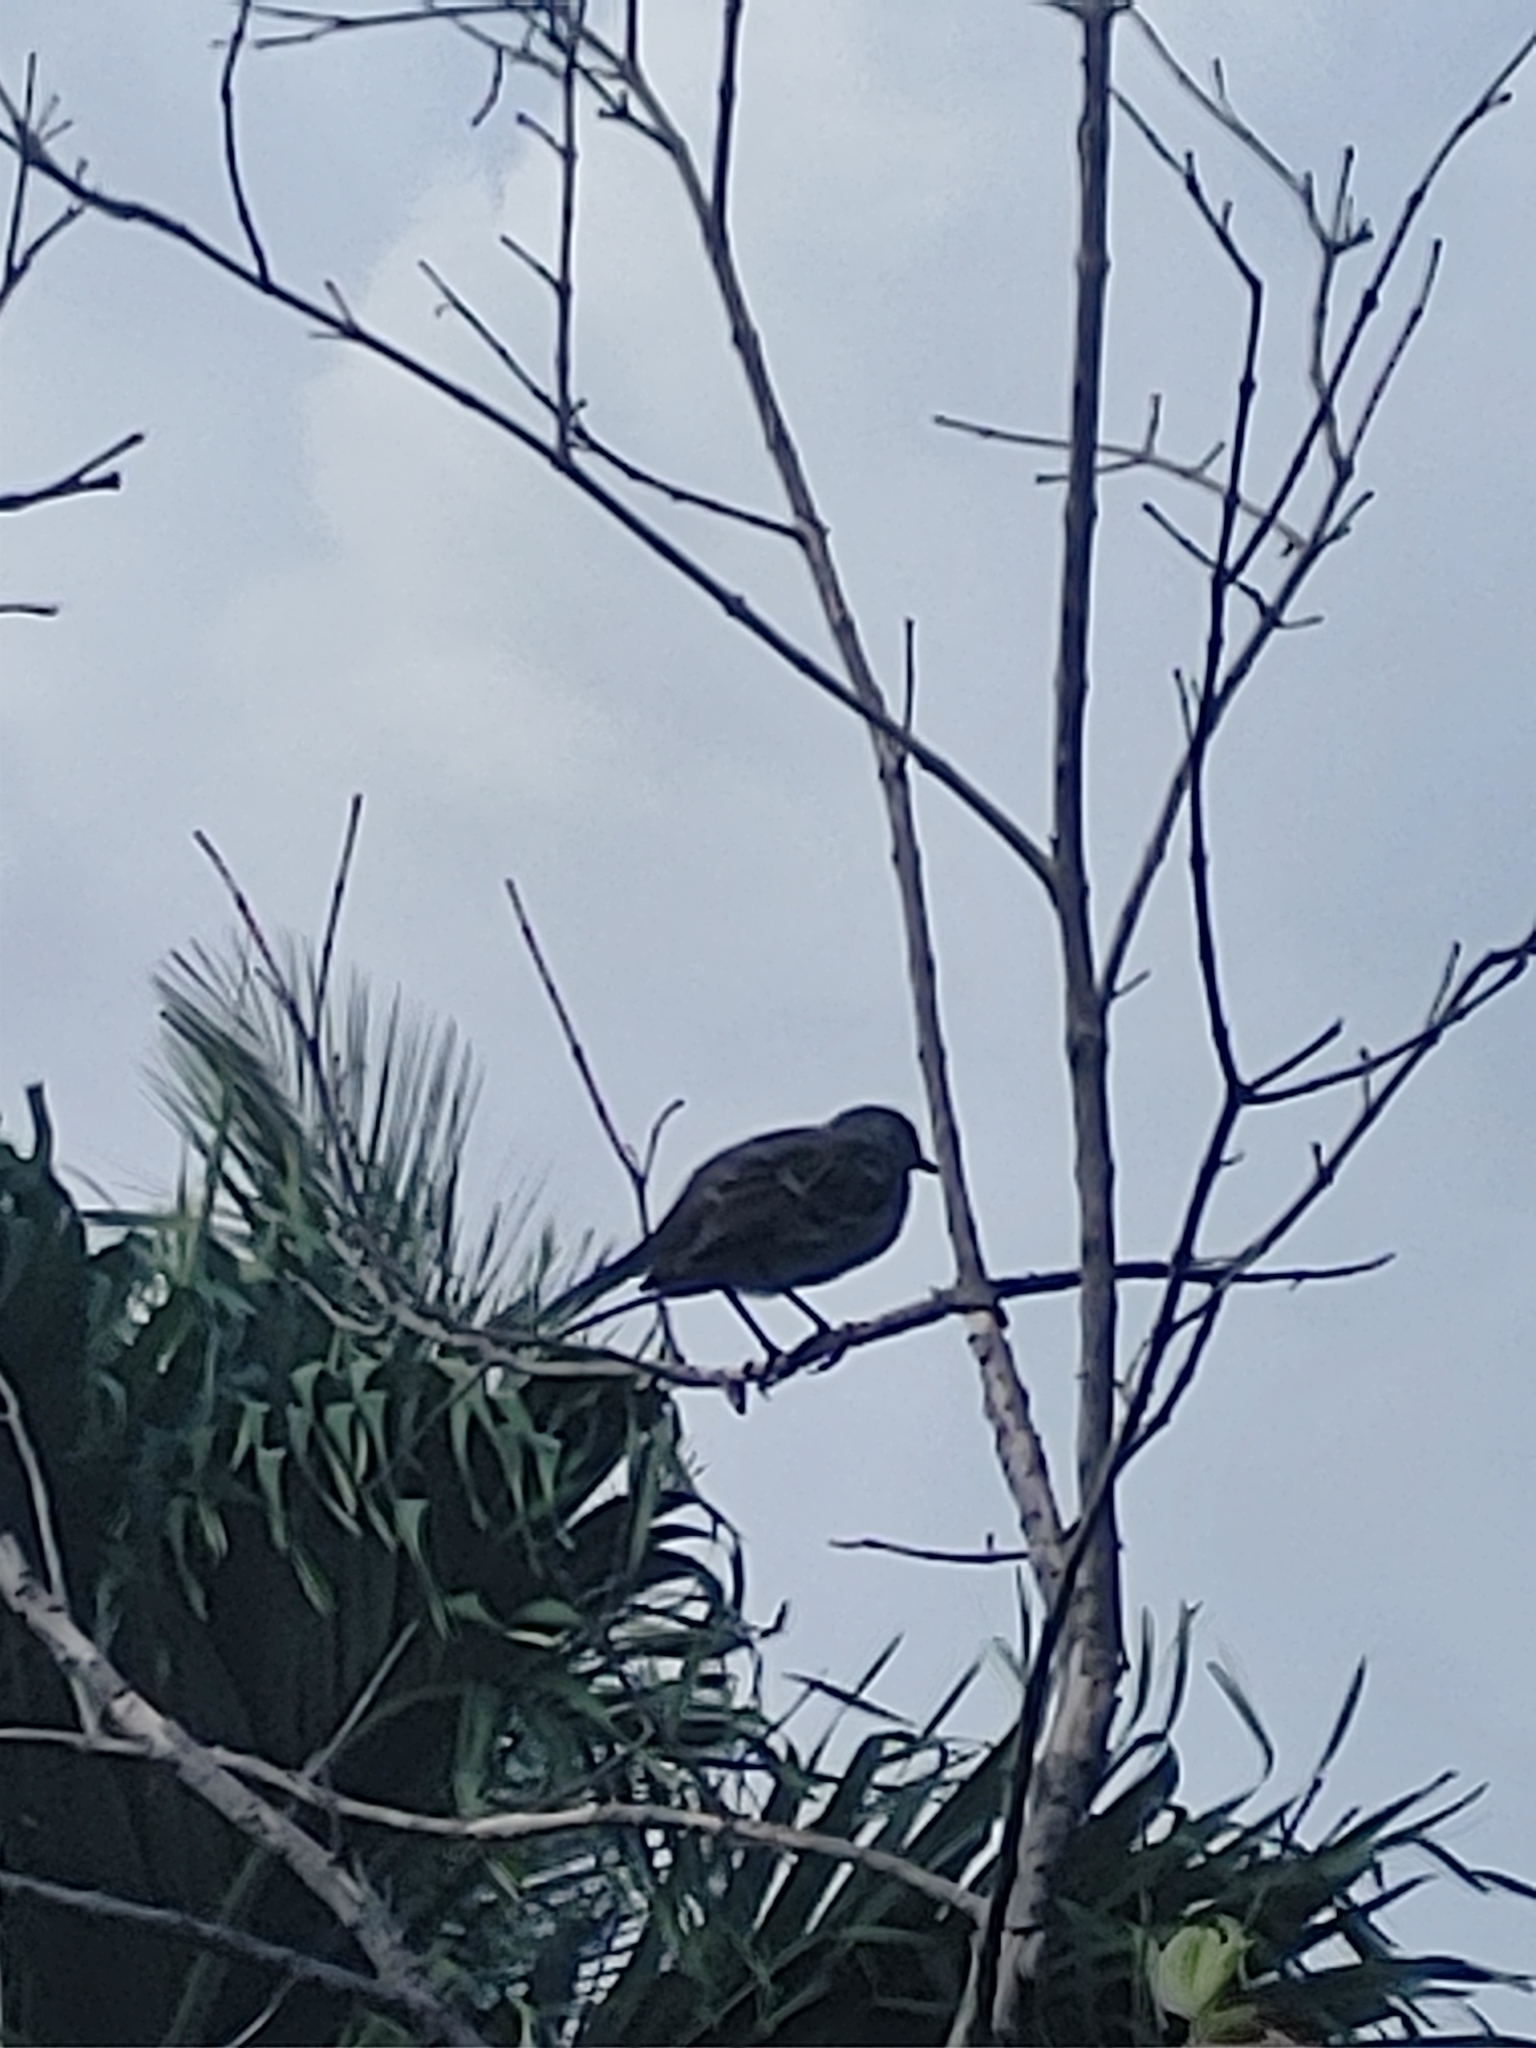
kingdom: Animalia
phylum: Chordata
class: Aves
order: Passeriformes
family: Mimidae
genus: Mimus
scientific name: Mimus polyglottos
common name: Northern mockingbird
